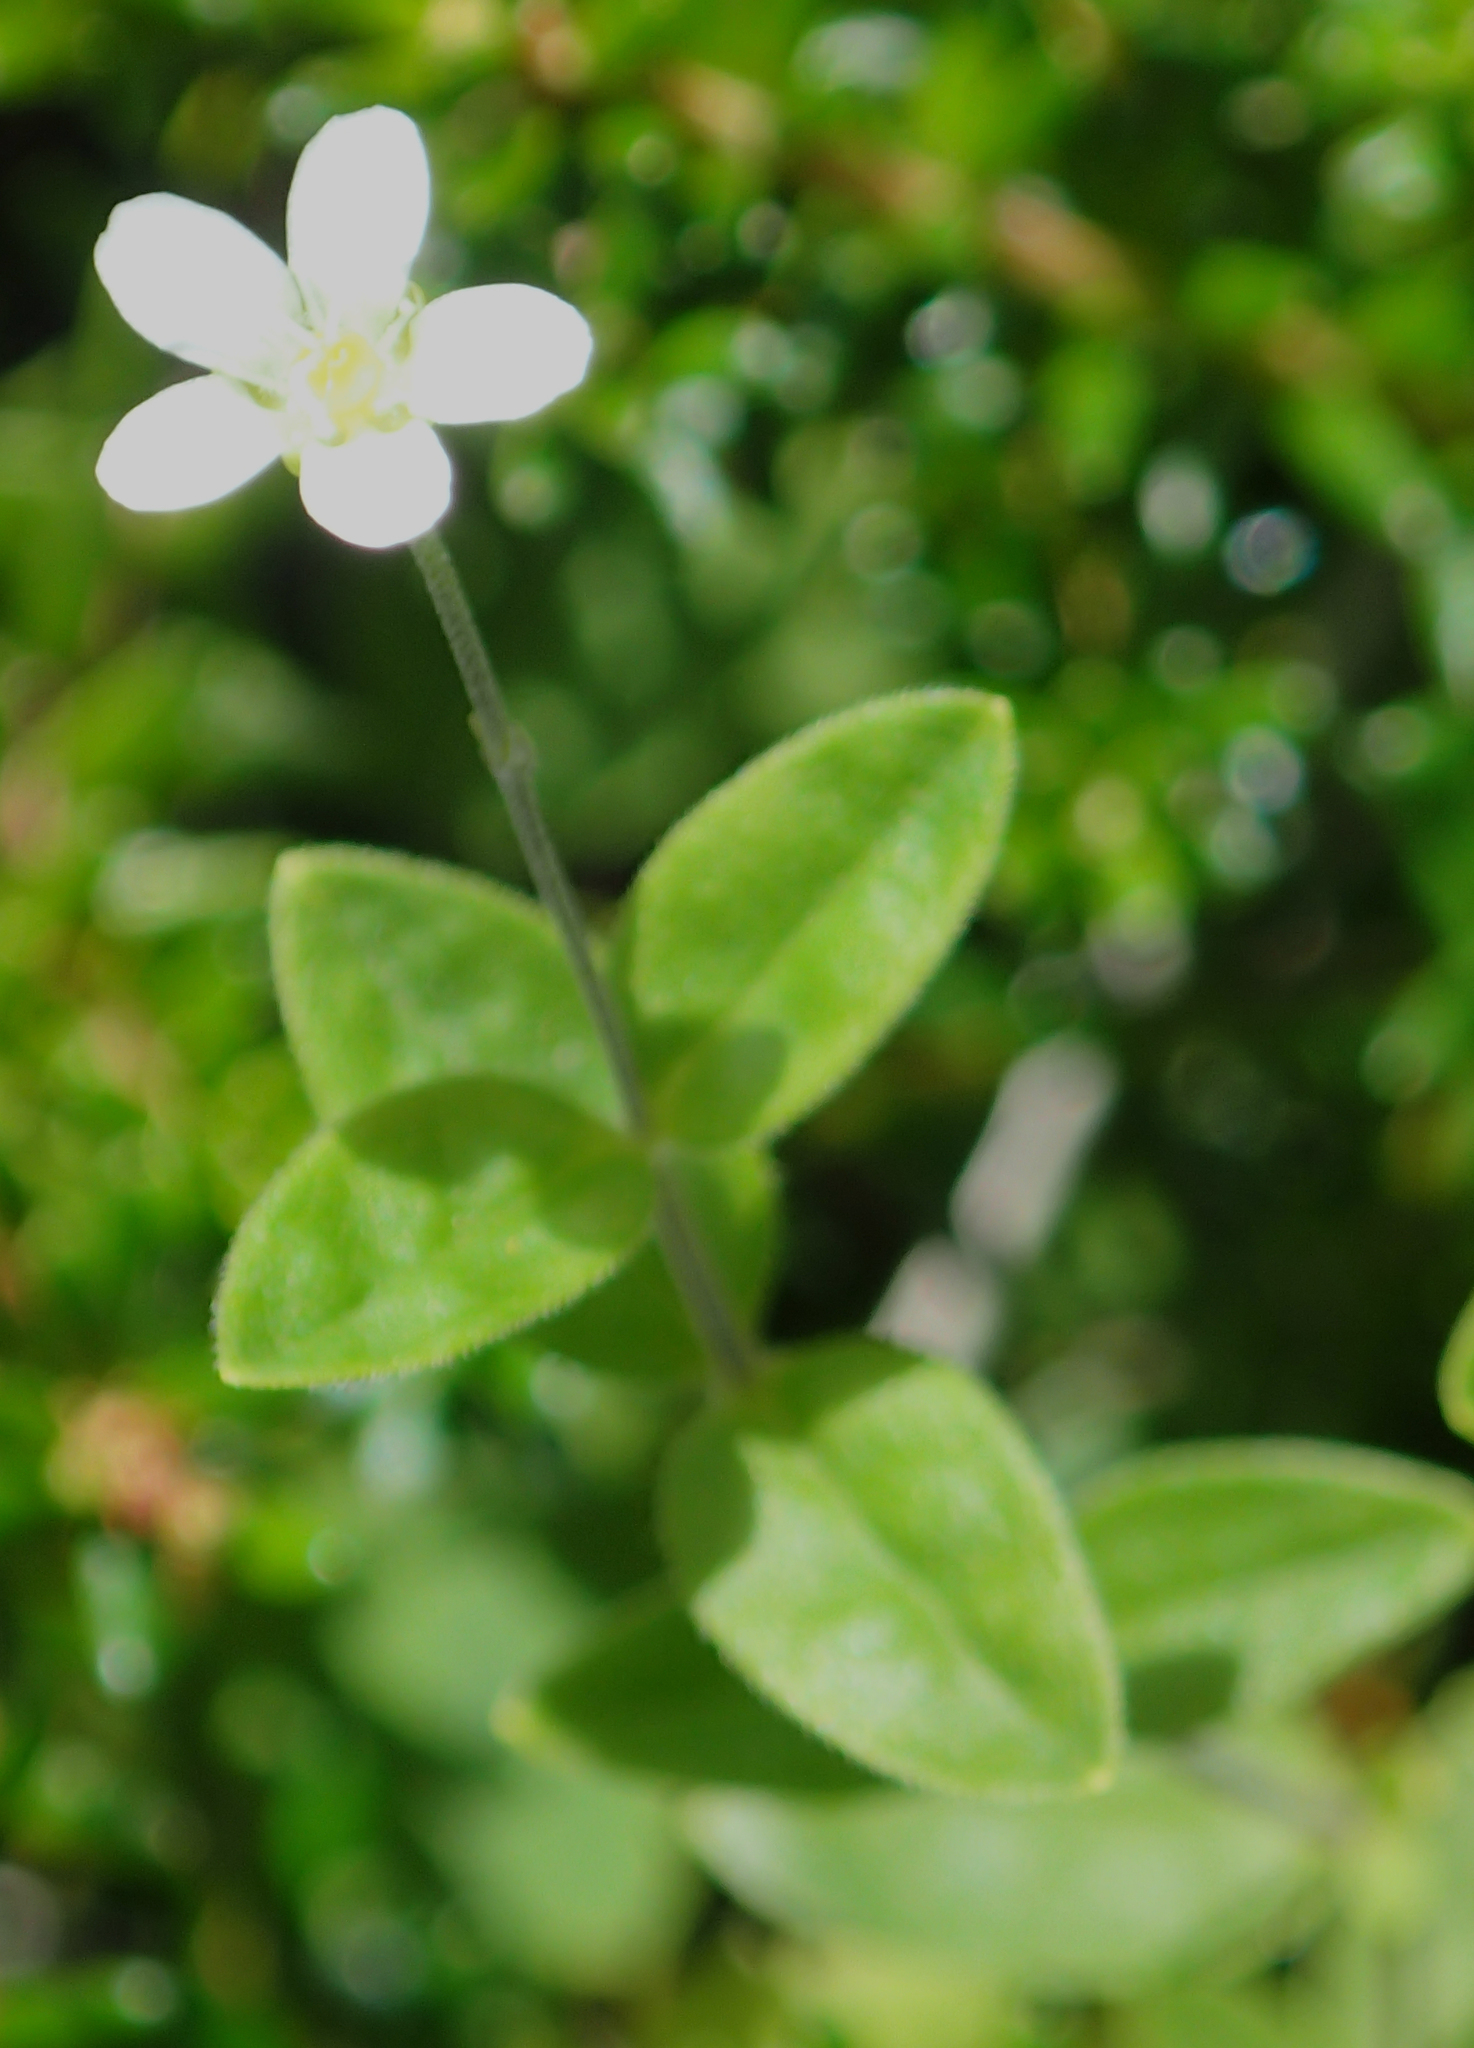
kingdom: Plantae
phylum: Tracheophyta
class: Magnoliopsida
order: Caryophyllales
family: Caryophyllaceae
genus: Moehringia
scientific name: Moehringia lateriflora
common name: Blunt-leaved sandwort
